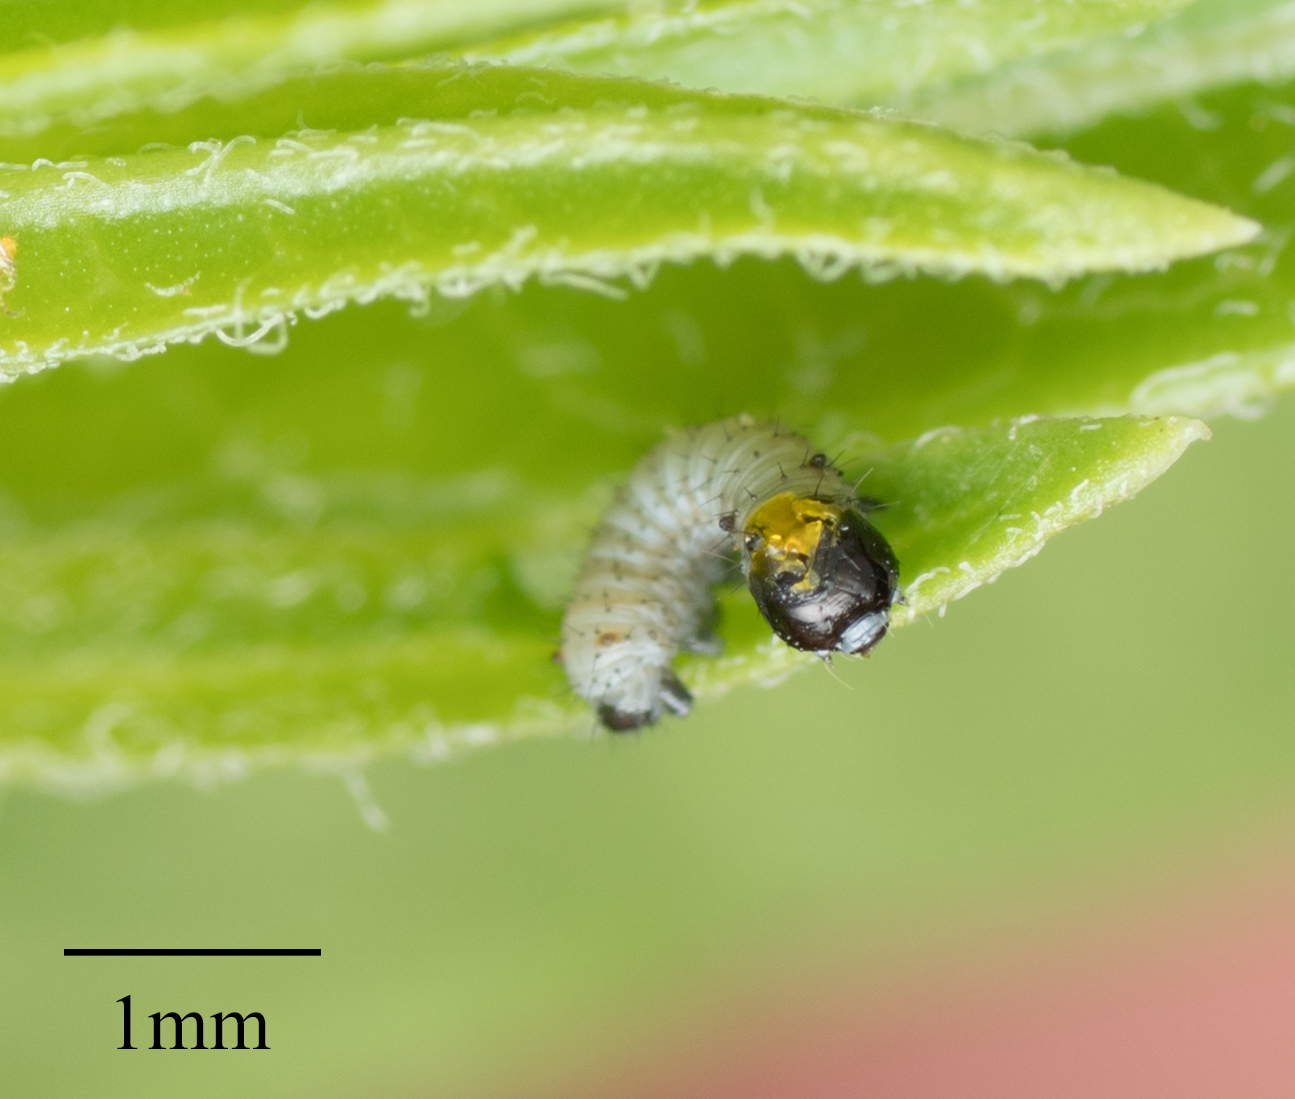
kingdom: Animalia
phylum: Arthropoda
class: Insecta
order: Lepidoptera
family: Nymphalidae
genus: Danaus
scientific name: Danaus plexippus
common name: Monarch
